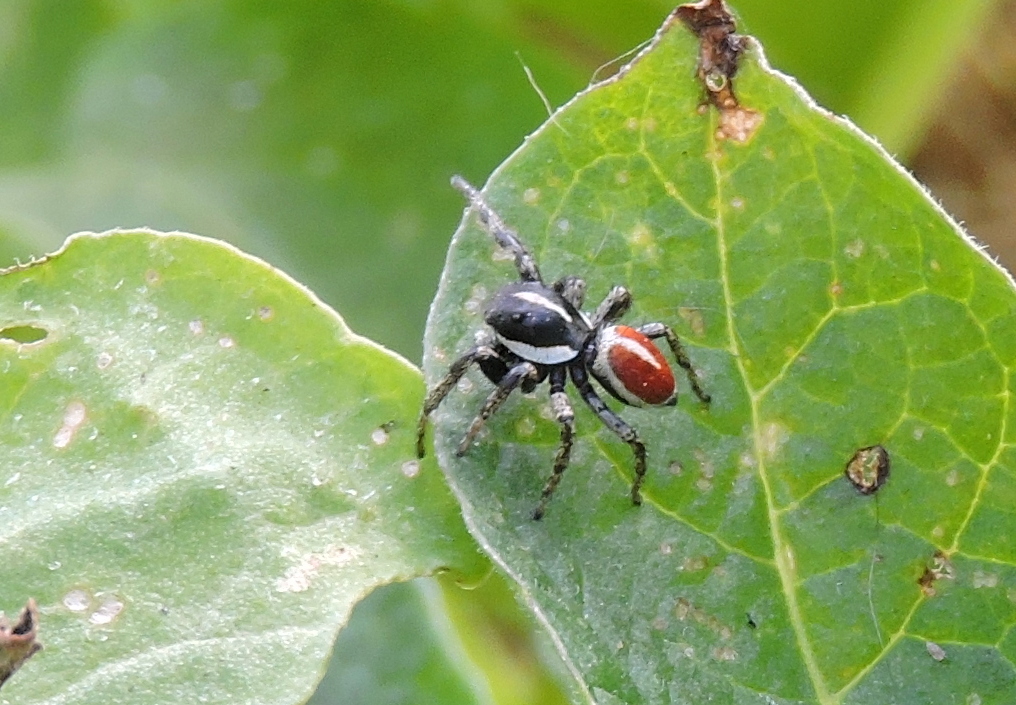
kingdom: Animalia
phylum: Arthropoda
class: Arachnida
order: Araneae
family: Salticidae
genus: Phiale
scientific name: Phiale roburifoliata
